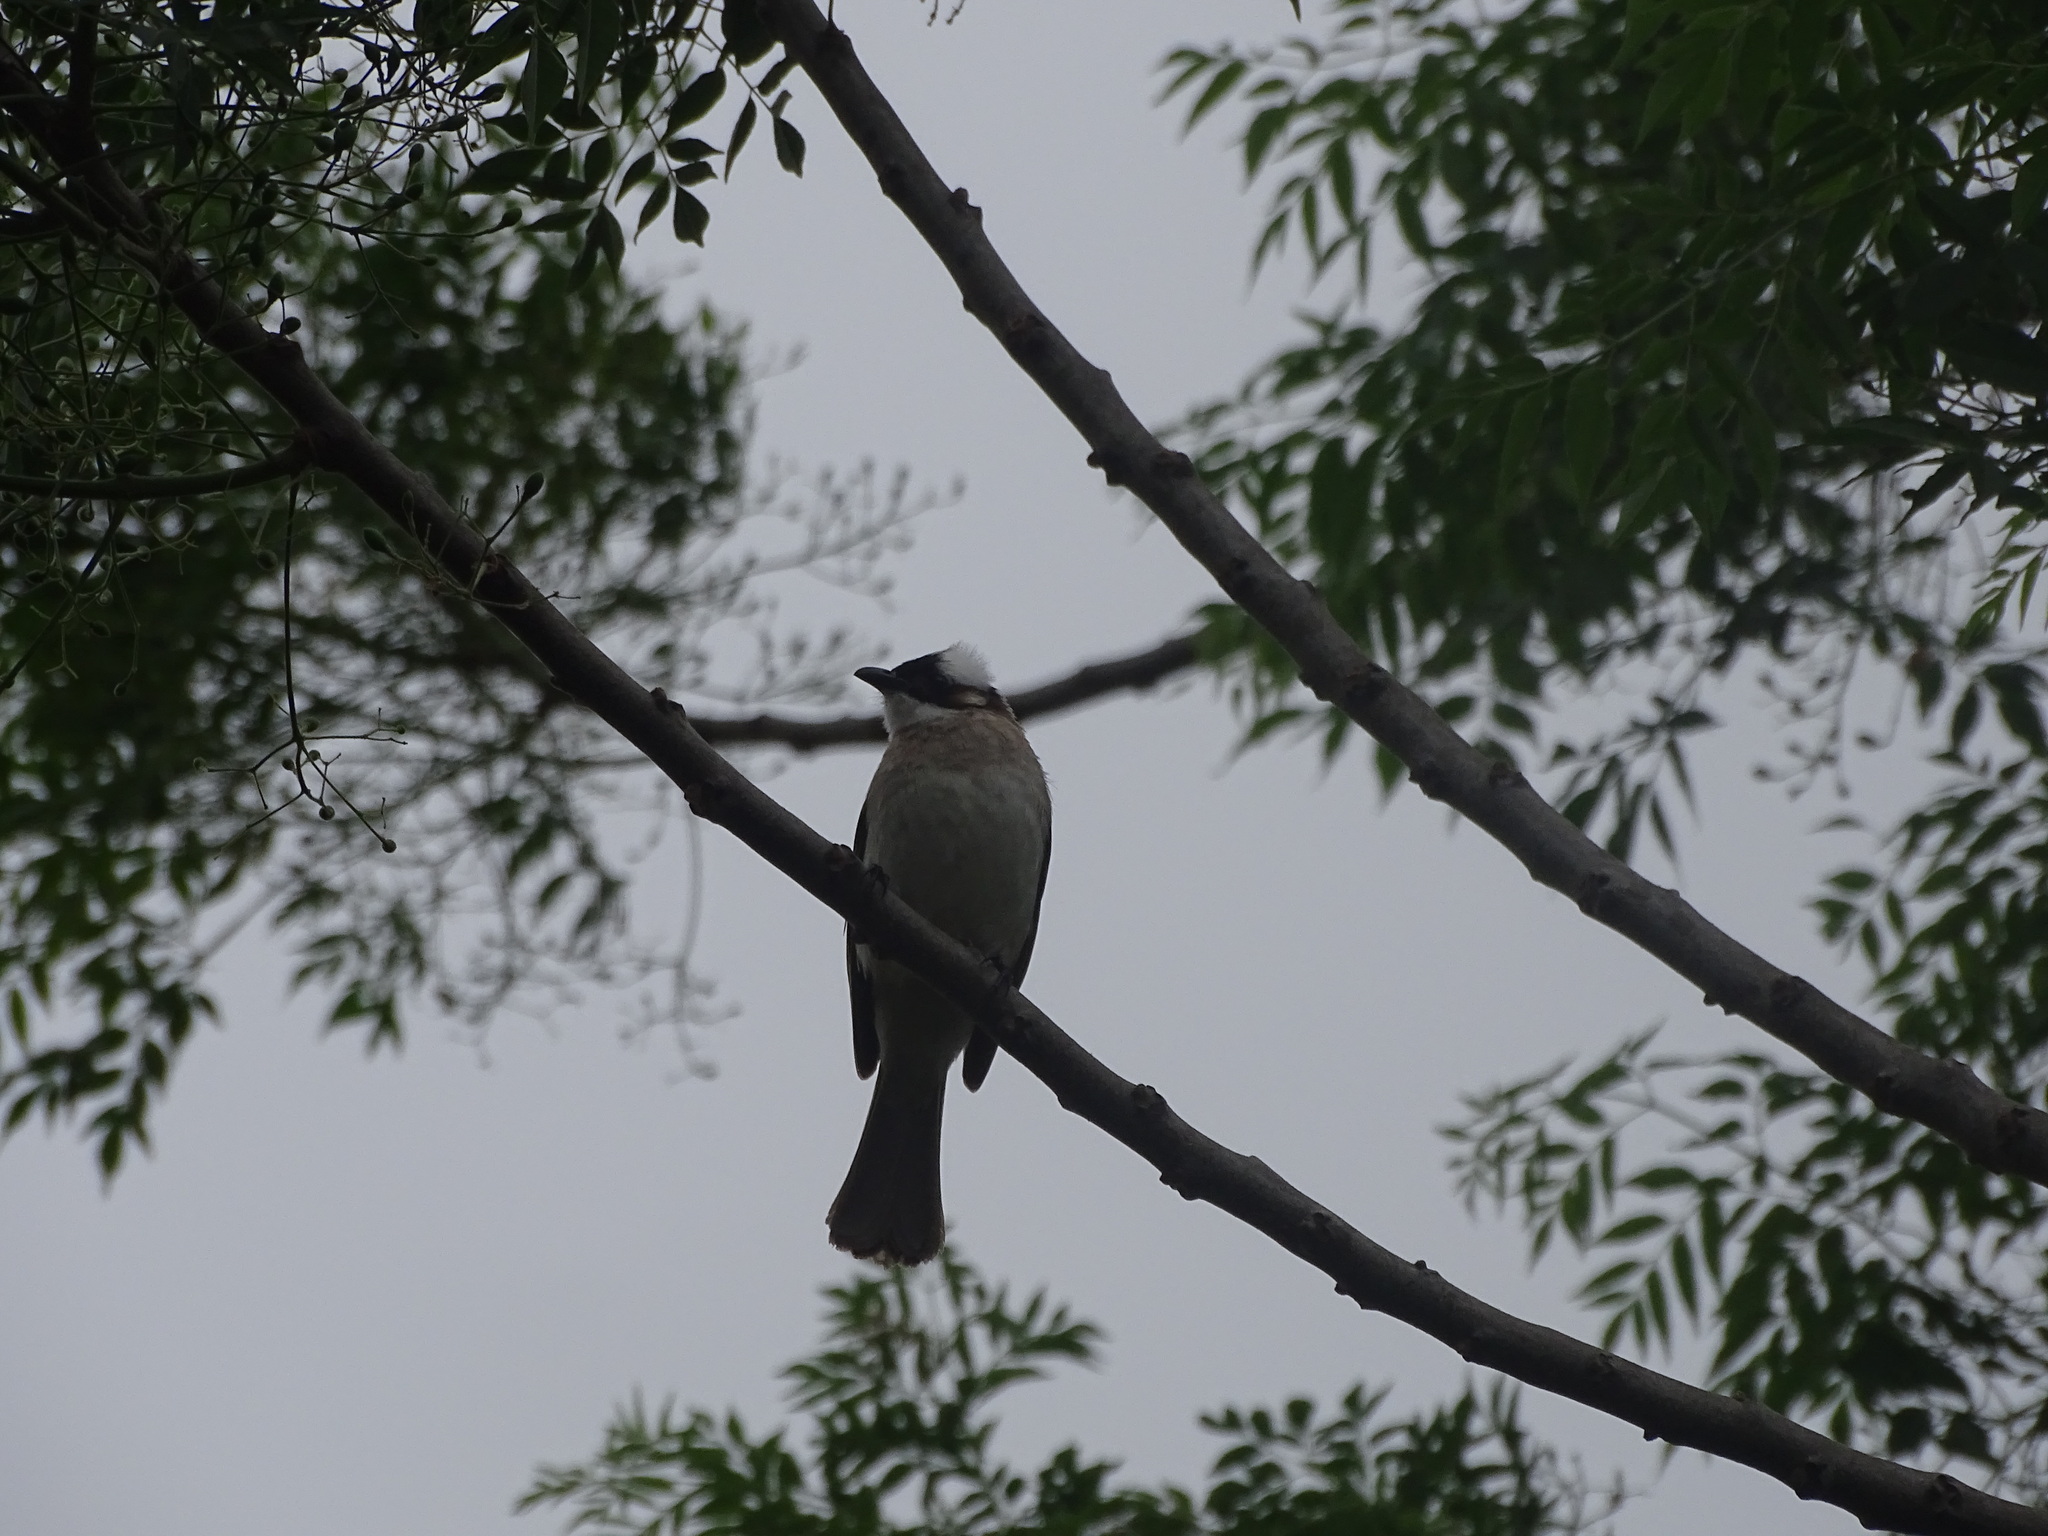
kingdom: Animalia
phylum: Chordata
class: Aves
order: Passeriformes
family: Pycnonotidae
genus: Pycnonotus
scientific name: Pycnonotus sinensis
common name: Light-vented bulbul
